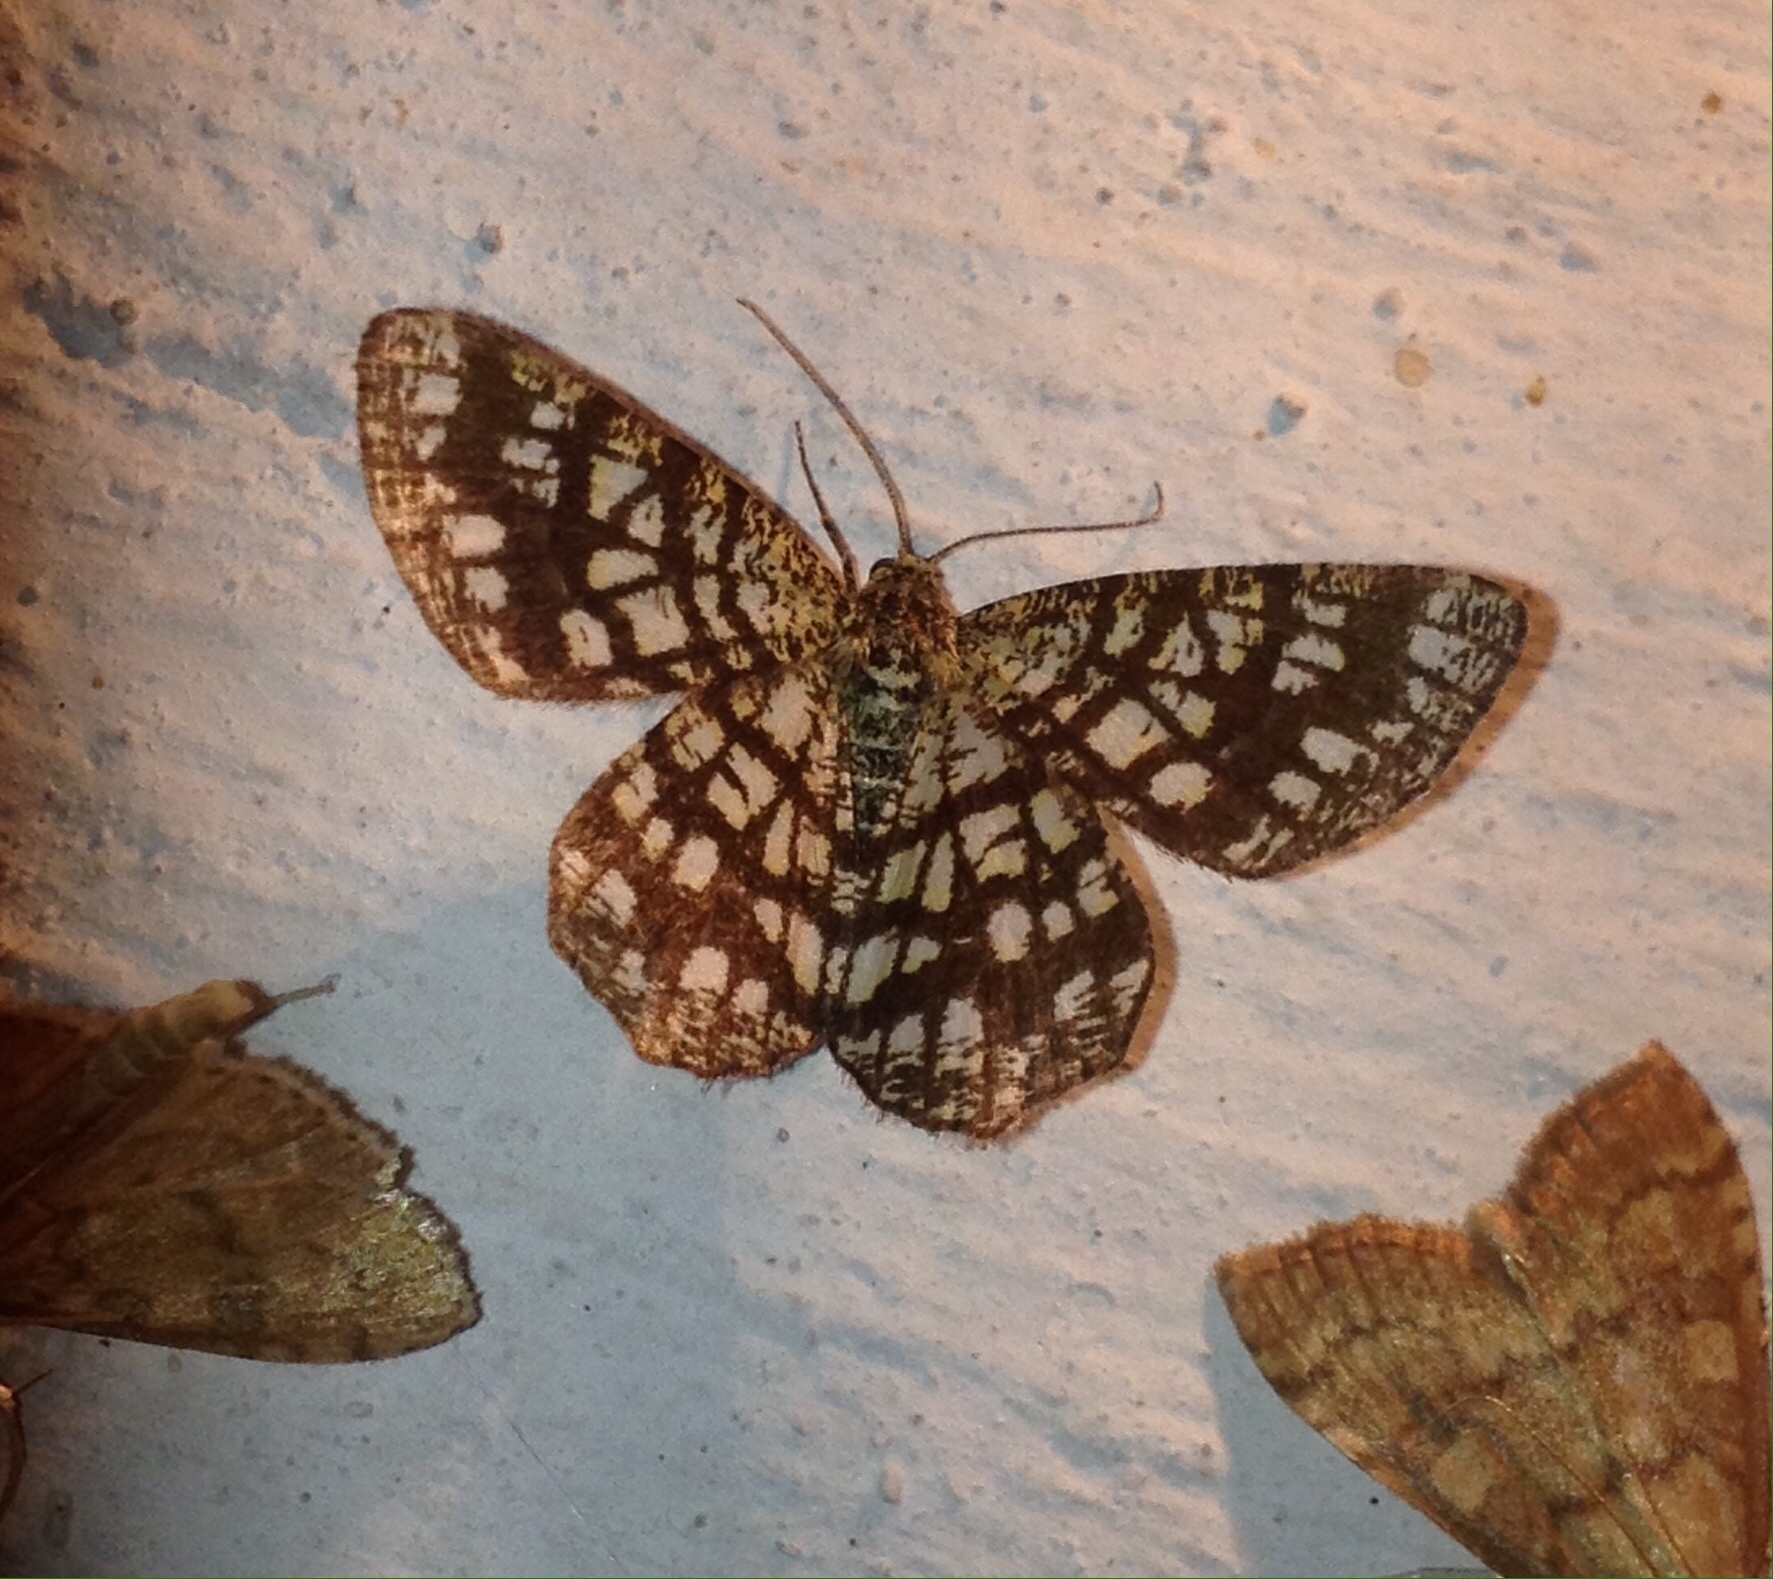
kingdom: Animalia
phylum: Arthropoda
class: Insecta
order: Lepidoptera
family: Geometridae
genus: Chiasmia
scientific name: Chiasmia clathrata
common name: Latticed heath
